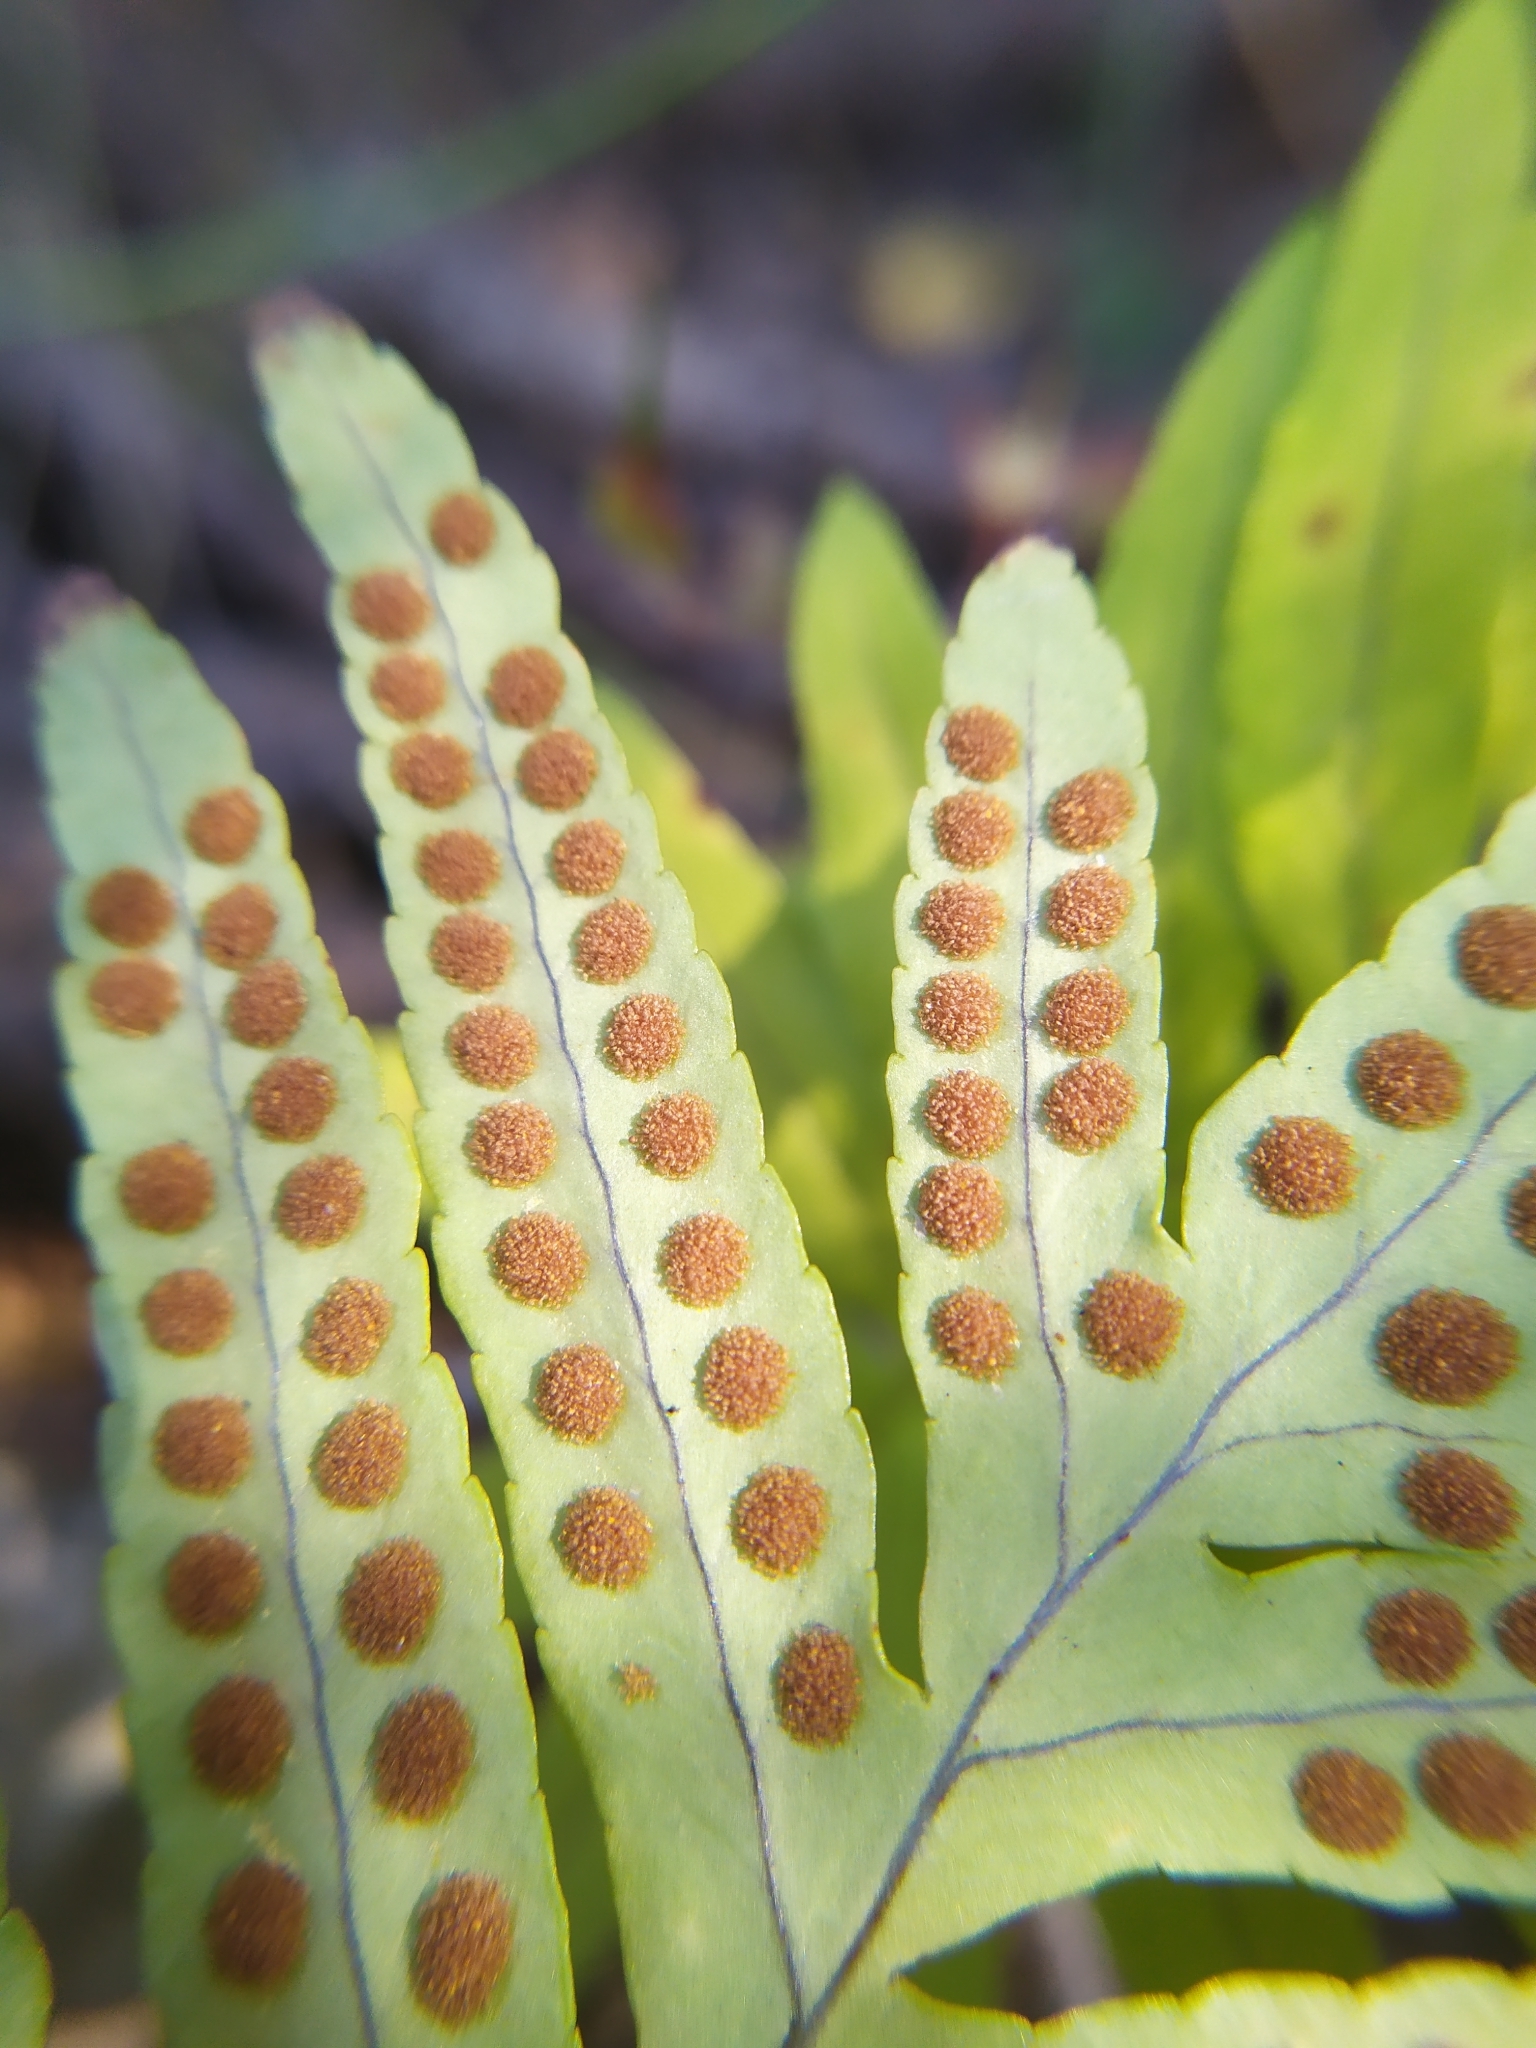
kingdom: Plantae
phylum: Tracheophyta
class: Polypodiopsida
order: Polypodiales
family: Polypodiaceae
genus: Polypodium
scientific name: Polypodium cambricum
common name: Southern polypody
